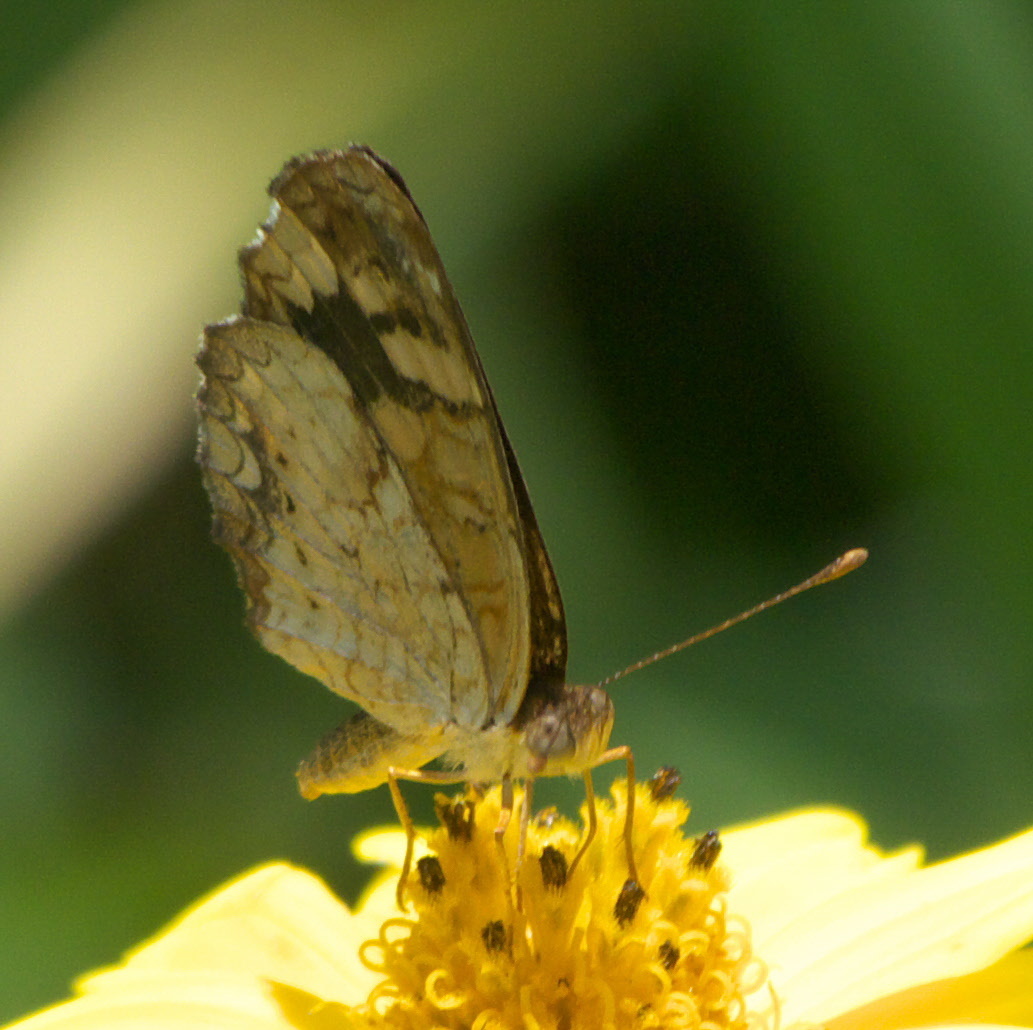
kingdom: Animalia
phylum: Arthropoda
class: Insecta
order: Lepidoptera
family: Nymphalidae
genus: Anthanassa
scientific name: Anthanassa frisia
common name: Cuban crescent
